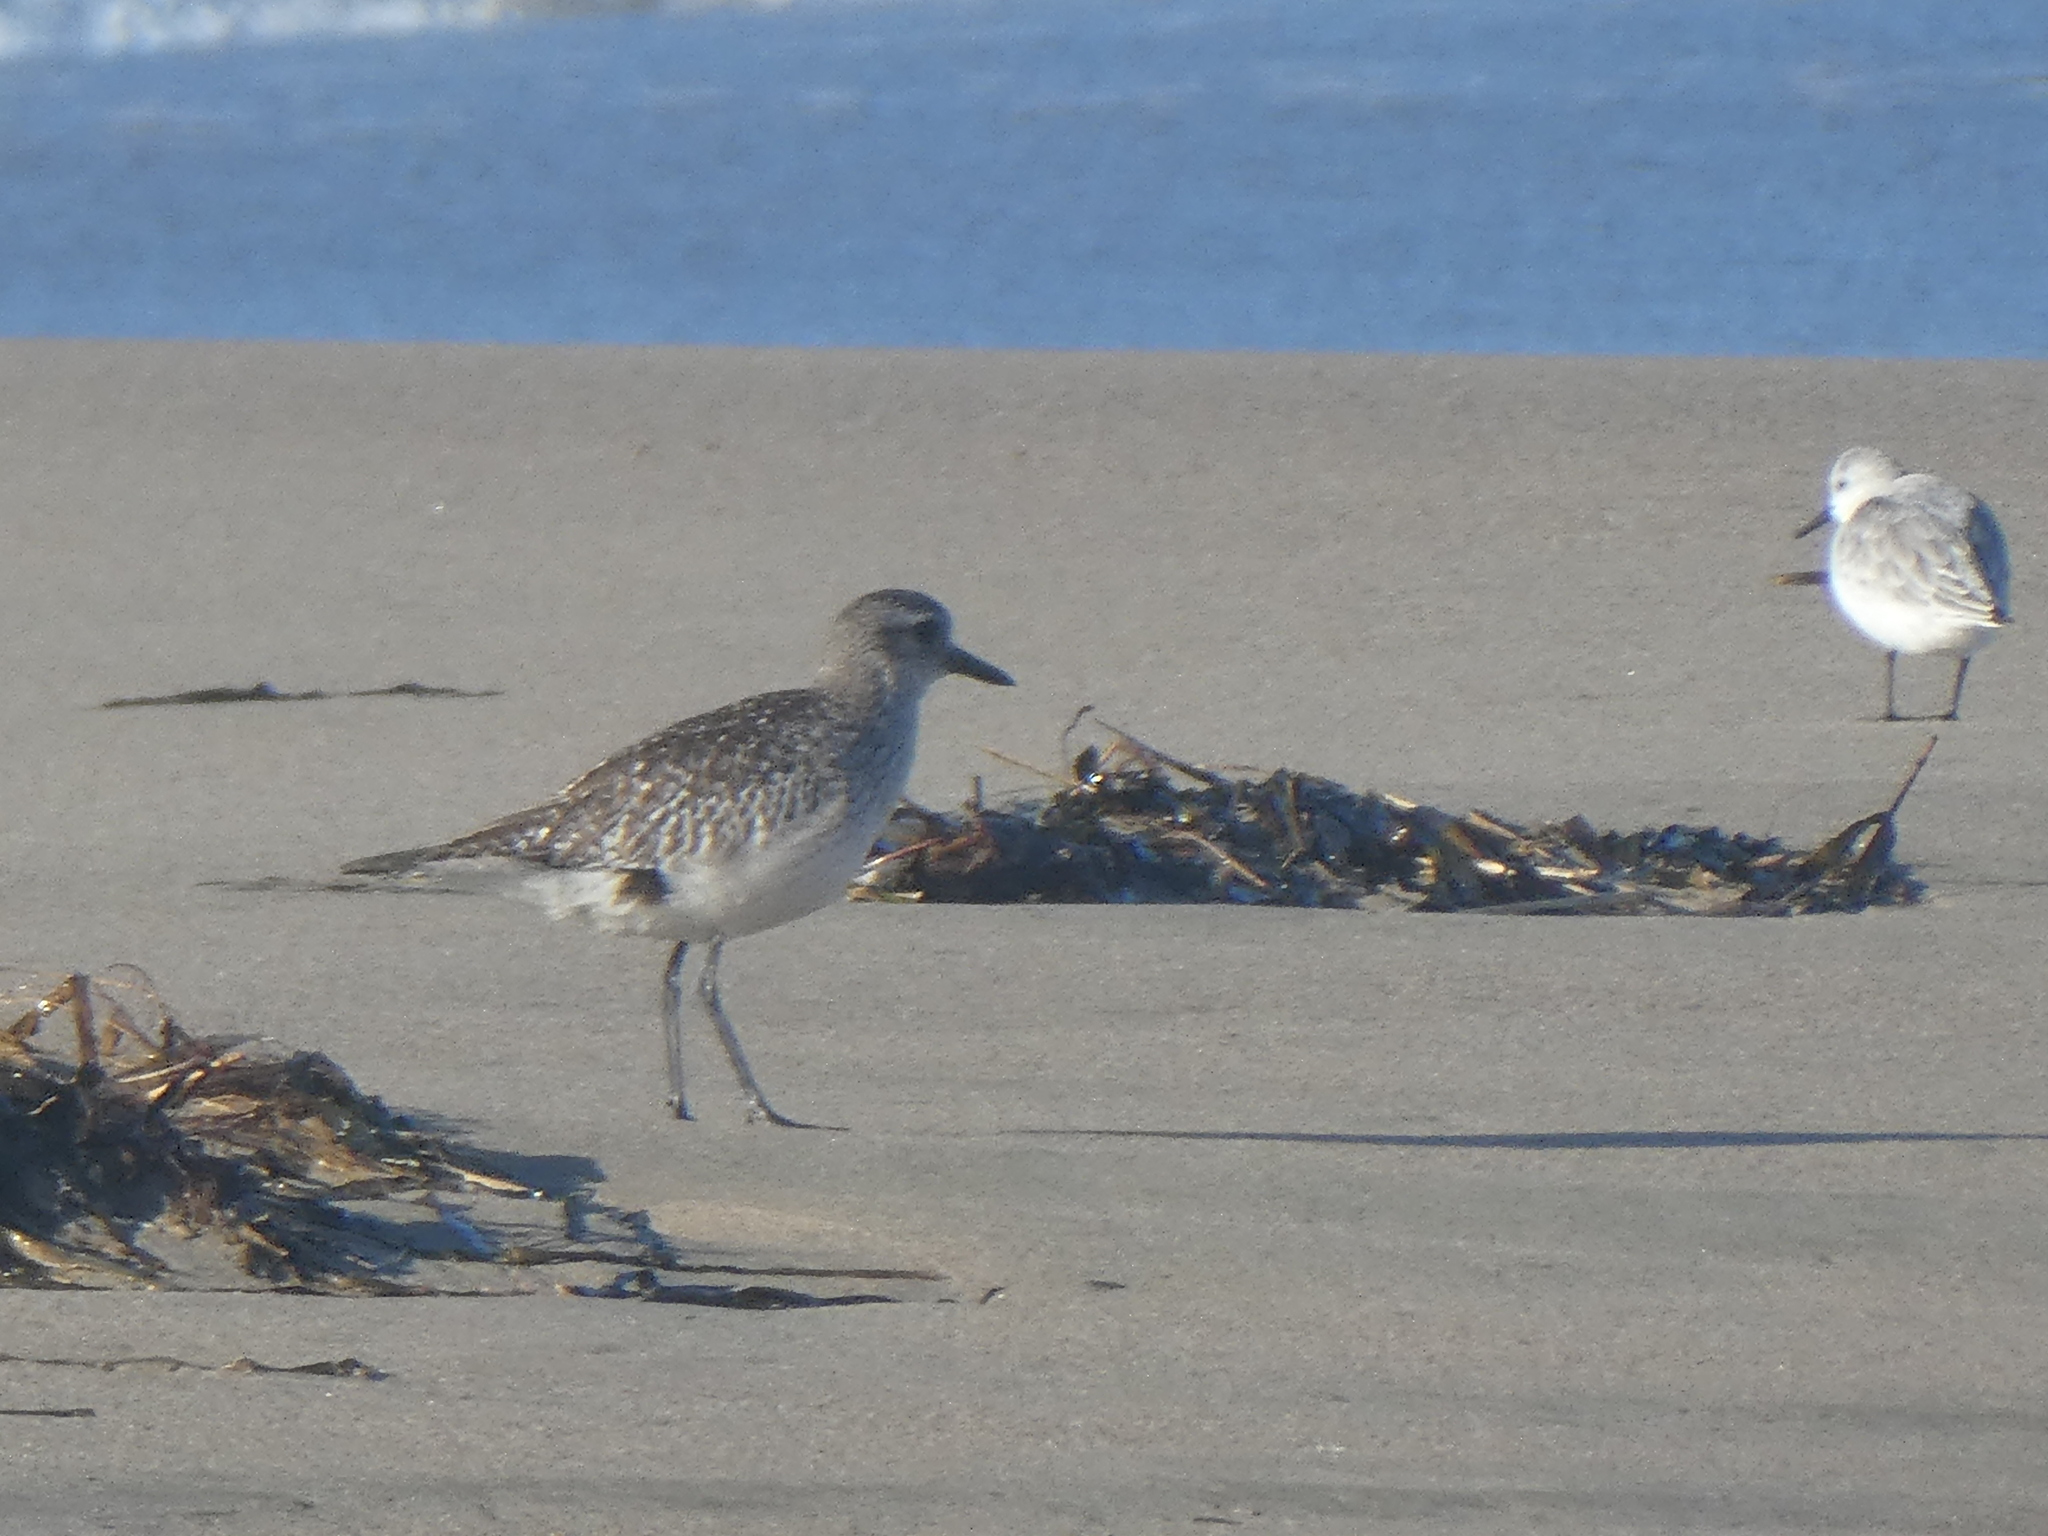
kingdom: Animalia
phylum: Chordata
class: Aves
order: Charadriiformes
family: Charadriidae
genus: Pluvialis
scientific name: Pluvialis squatarola
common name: Grey plover
